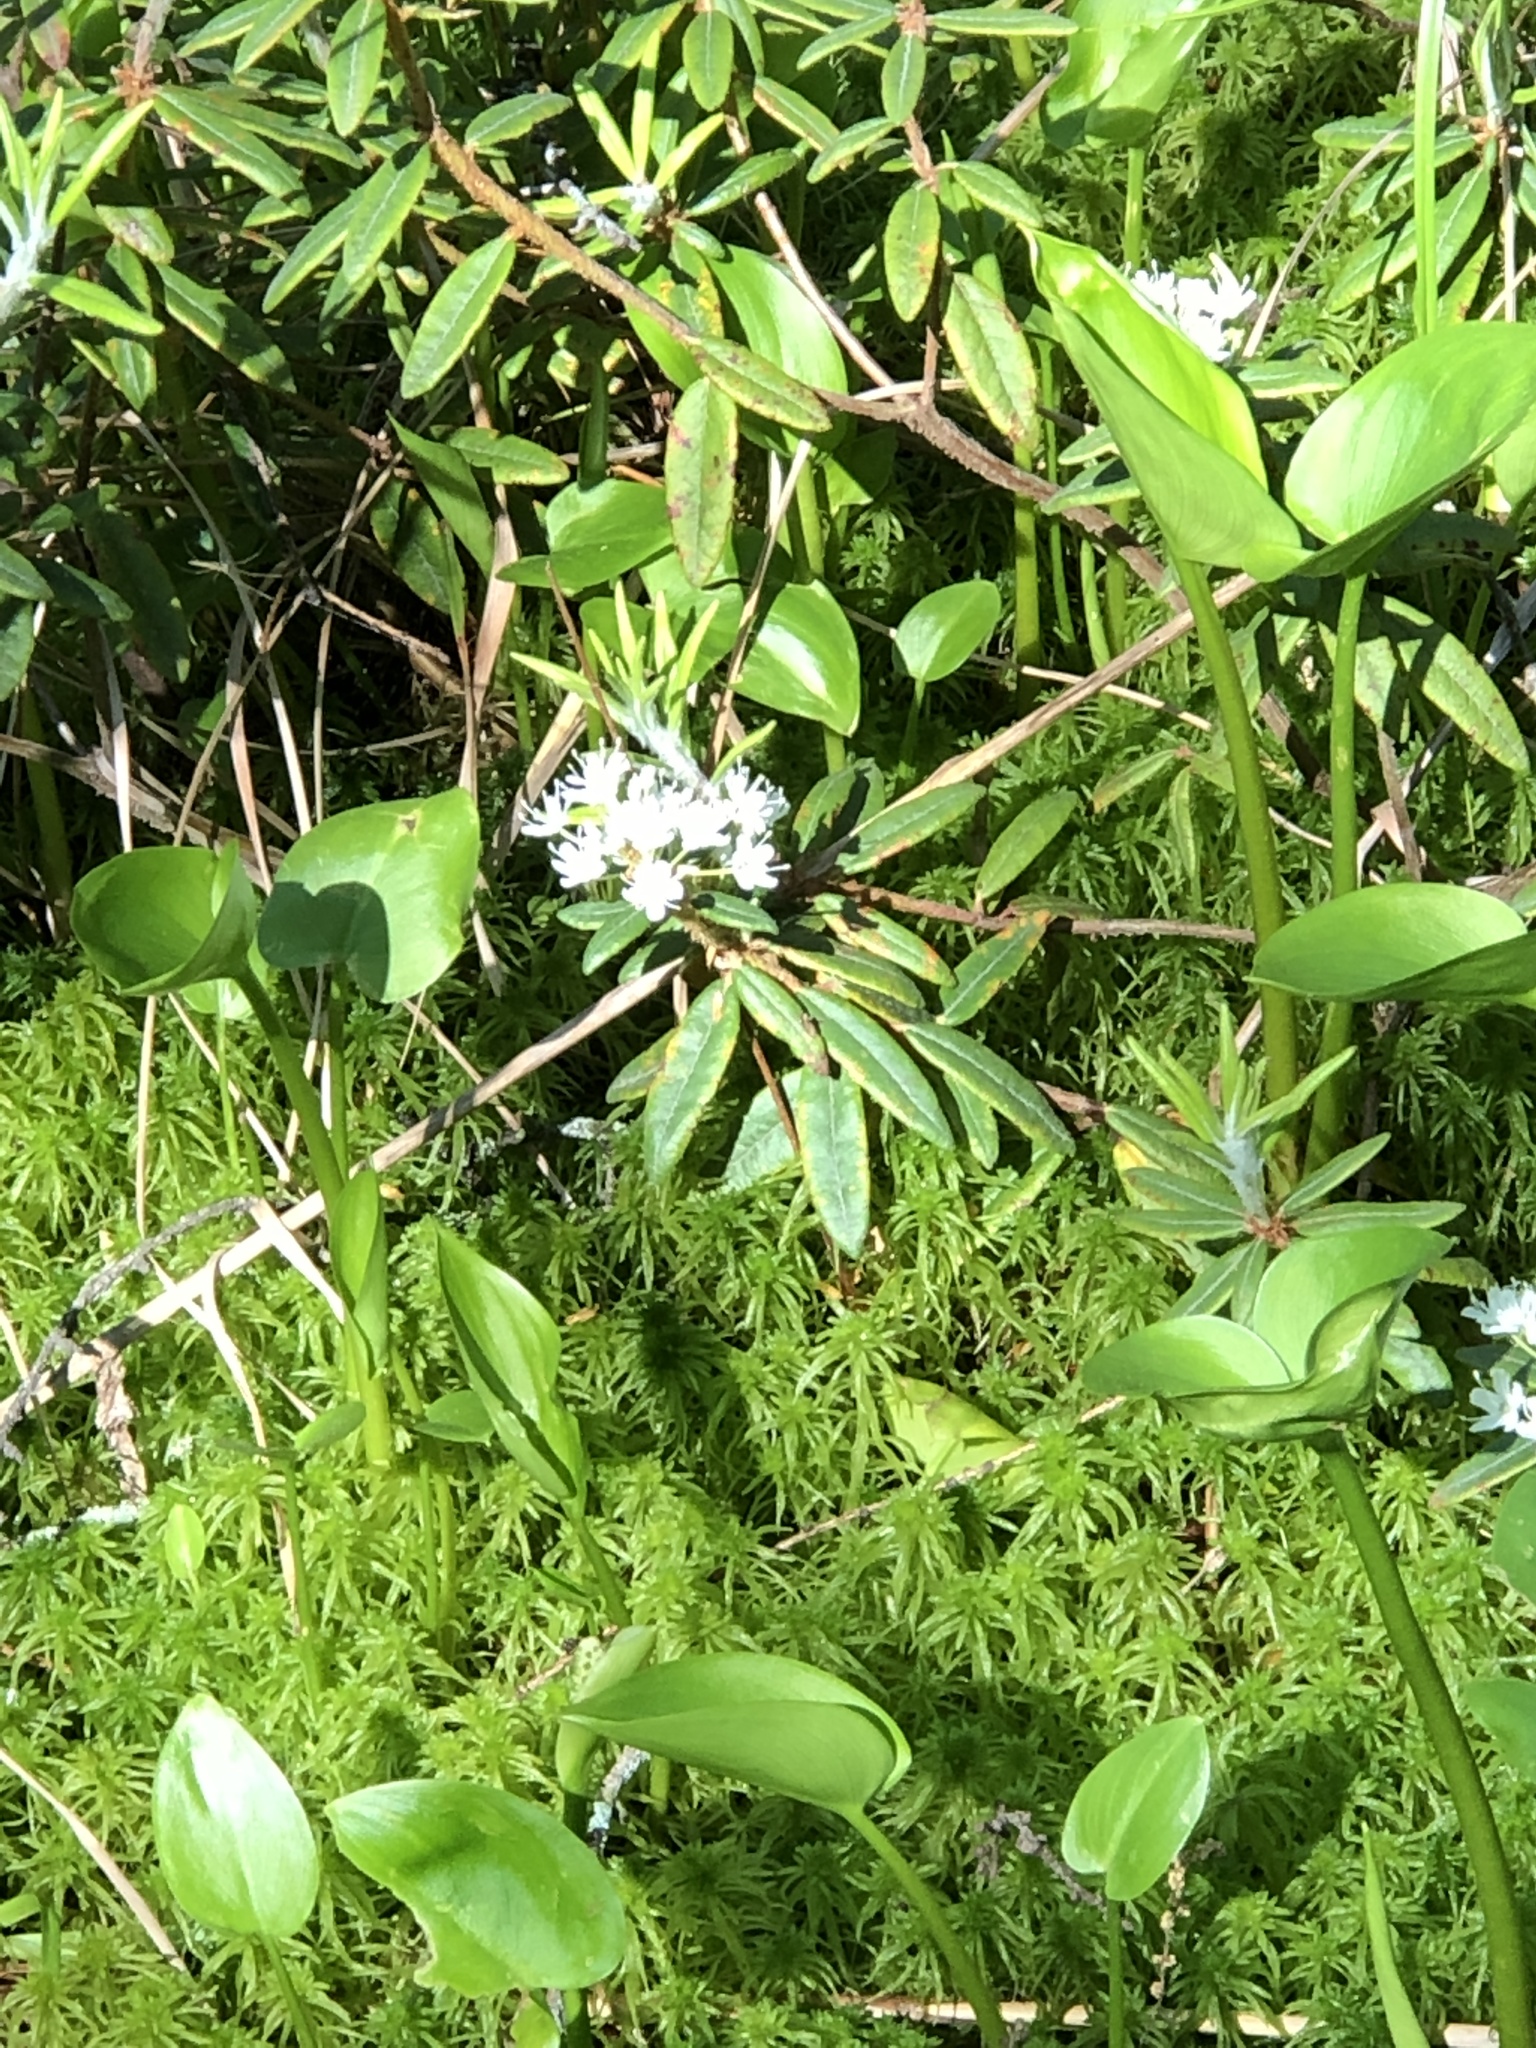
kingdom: Plantae
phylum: Tracheophyta
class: Magnoliopsida
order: Ericales
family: Ericaceae
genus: Rhododendron
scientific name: Rhododendron groenlandicum
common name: Bog labrador tea
